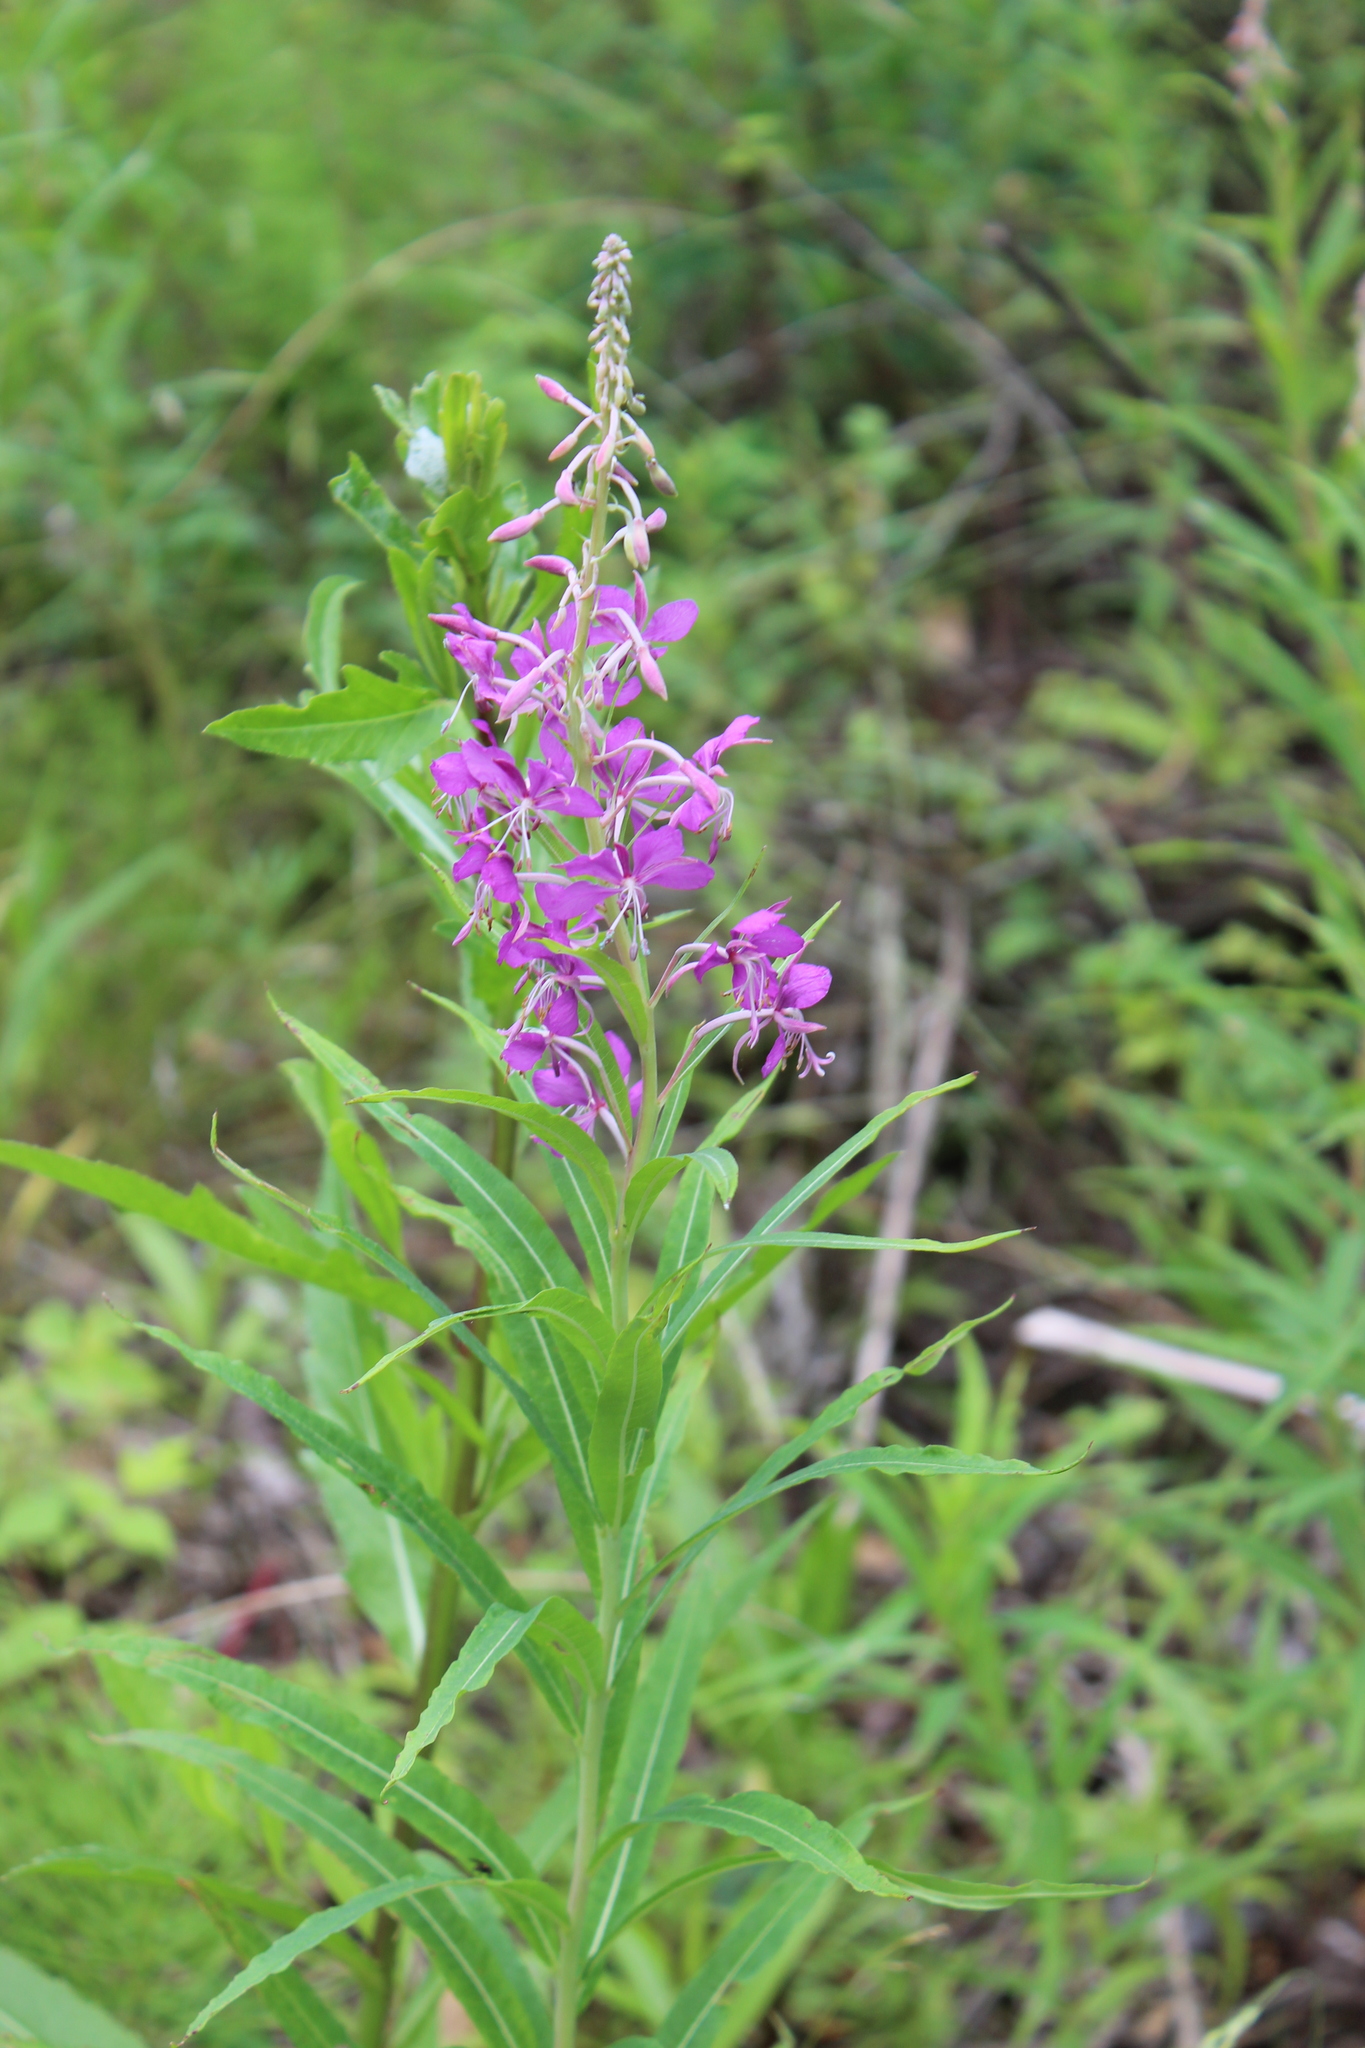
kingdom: Plantae
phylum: Tracheophyta
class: Magnoliopsida
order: Myrtales
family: Onagraceae
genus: Chamaenerion
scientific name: Chamaenerion angustifolium
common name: Fireweed
